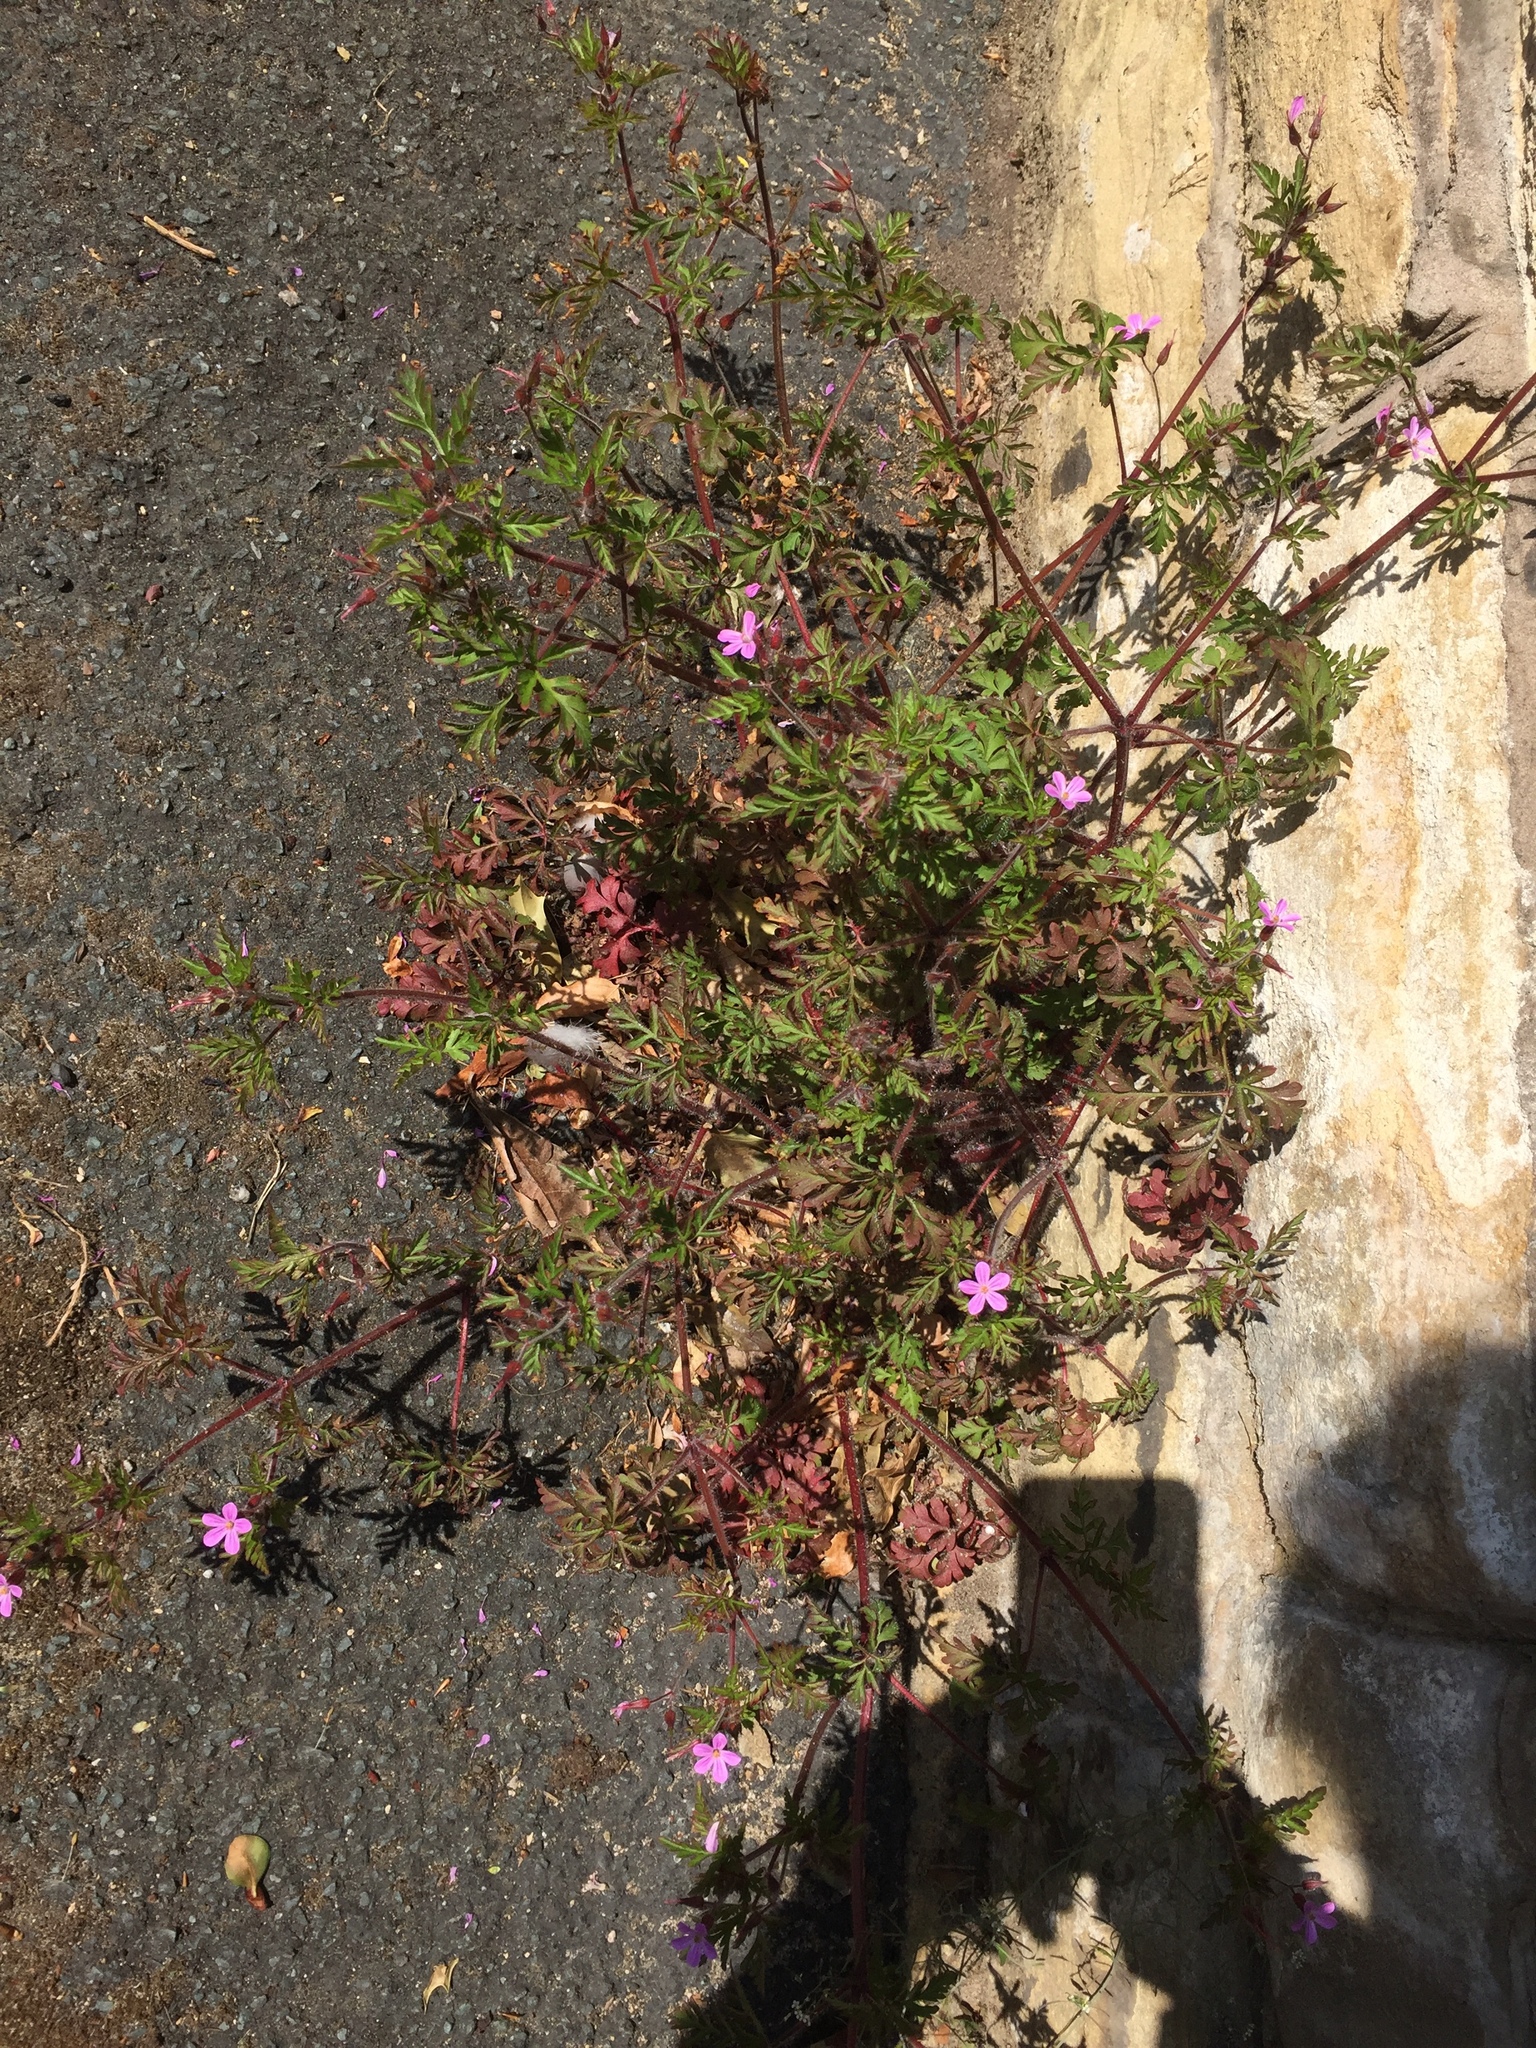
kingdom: Plantae
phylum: Tracheophyta
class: Magnoliopsida
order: Geraniales
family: Geraniaceae
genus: Geranium
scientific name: Geranium robertianum
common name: Herb-robert
